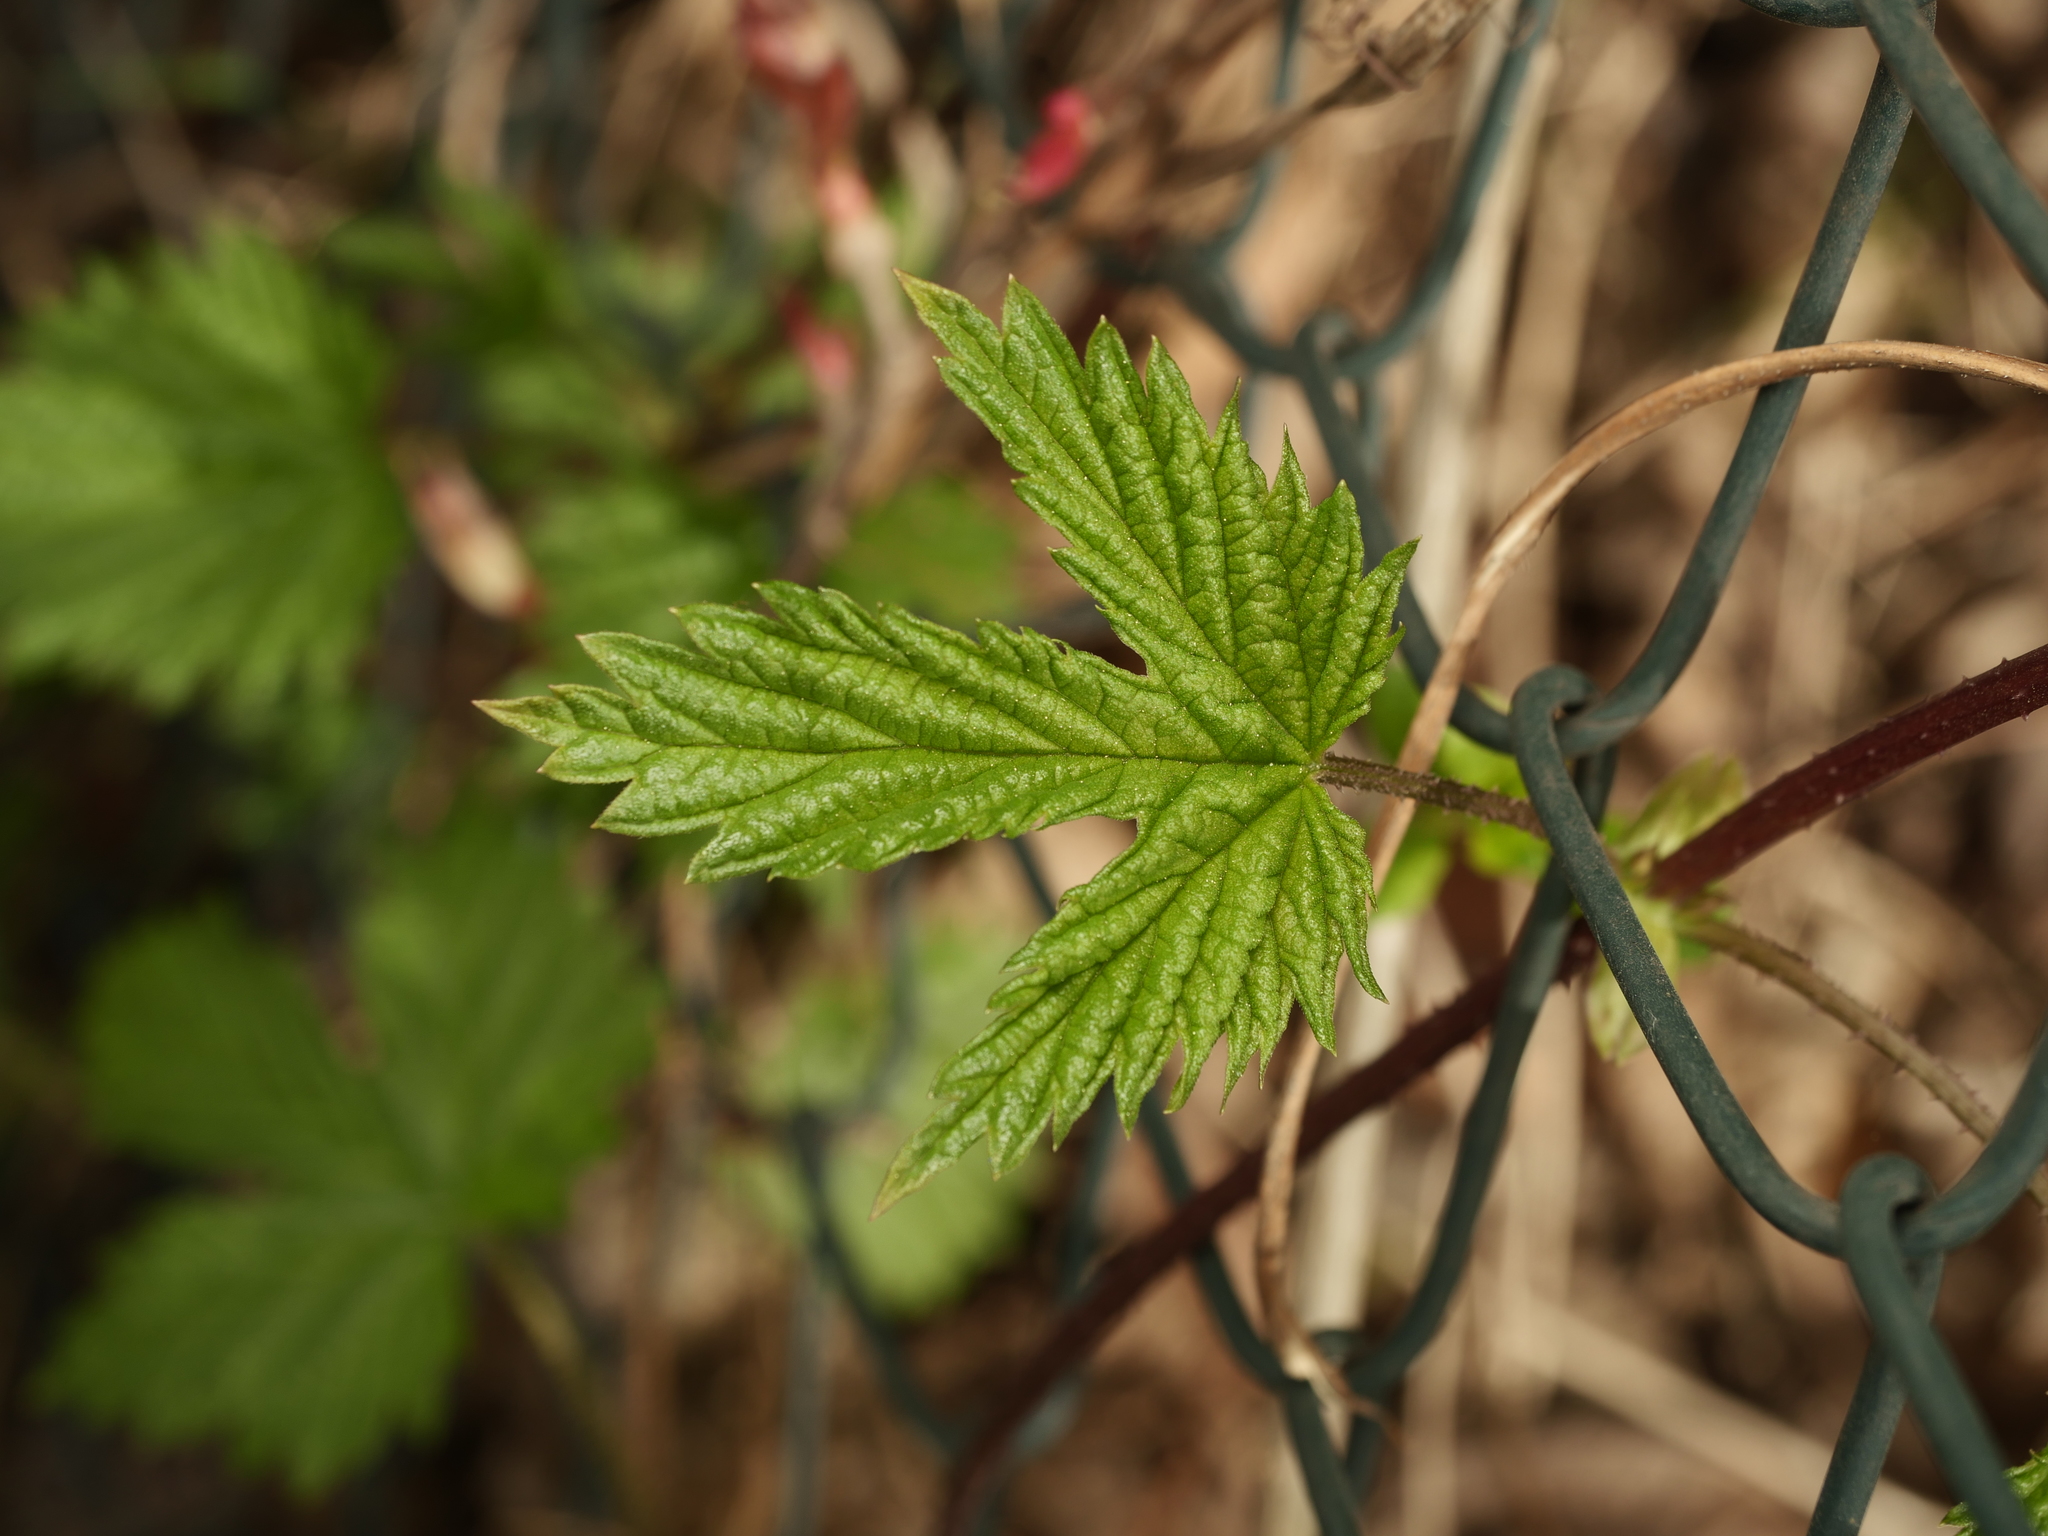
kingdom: Plantae
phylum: Tracheophyta
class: Magnoliopsida
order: Rosales
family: Cannabaceae
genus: Humulus
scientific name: Humulus lupulus
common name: Hop
